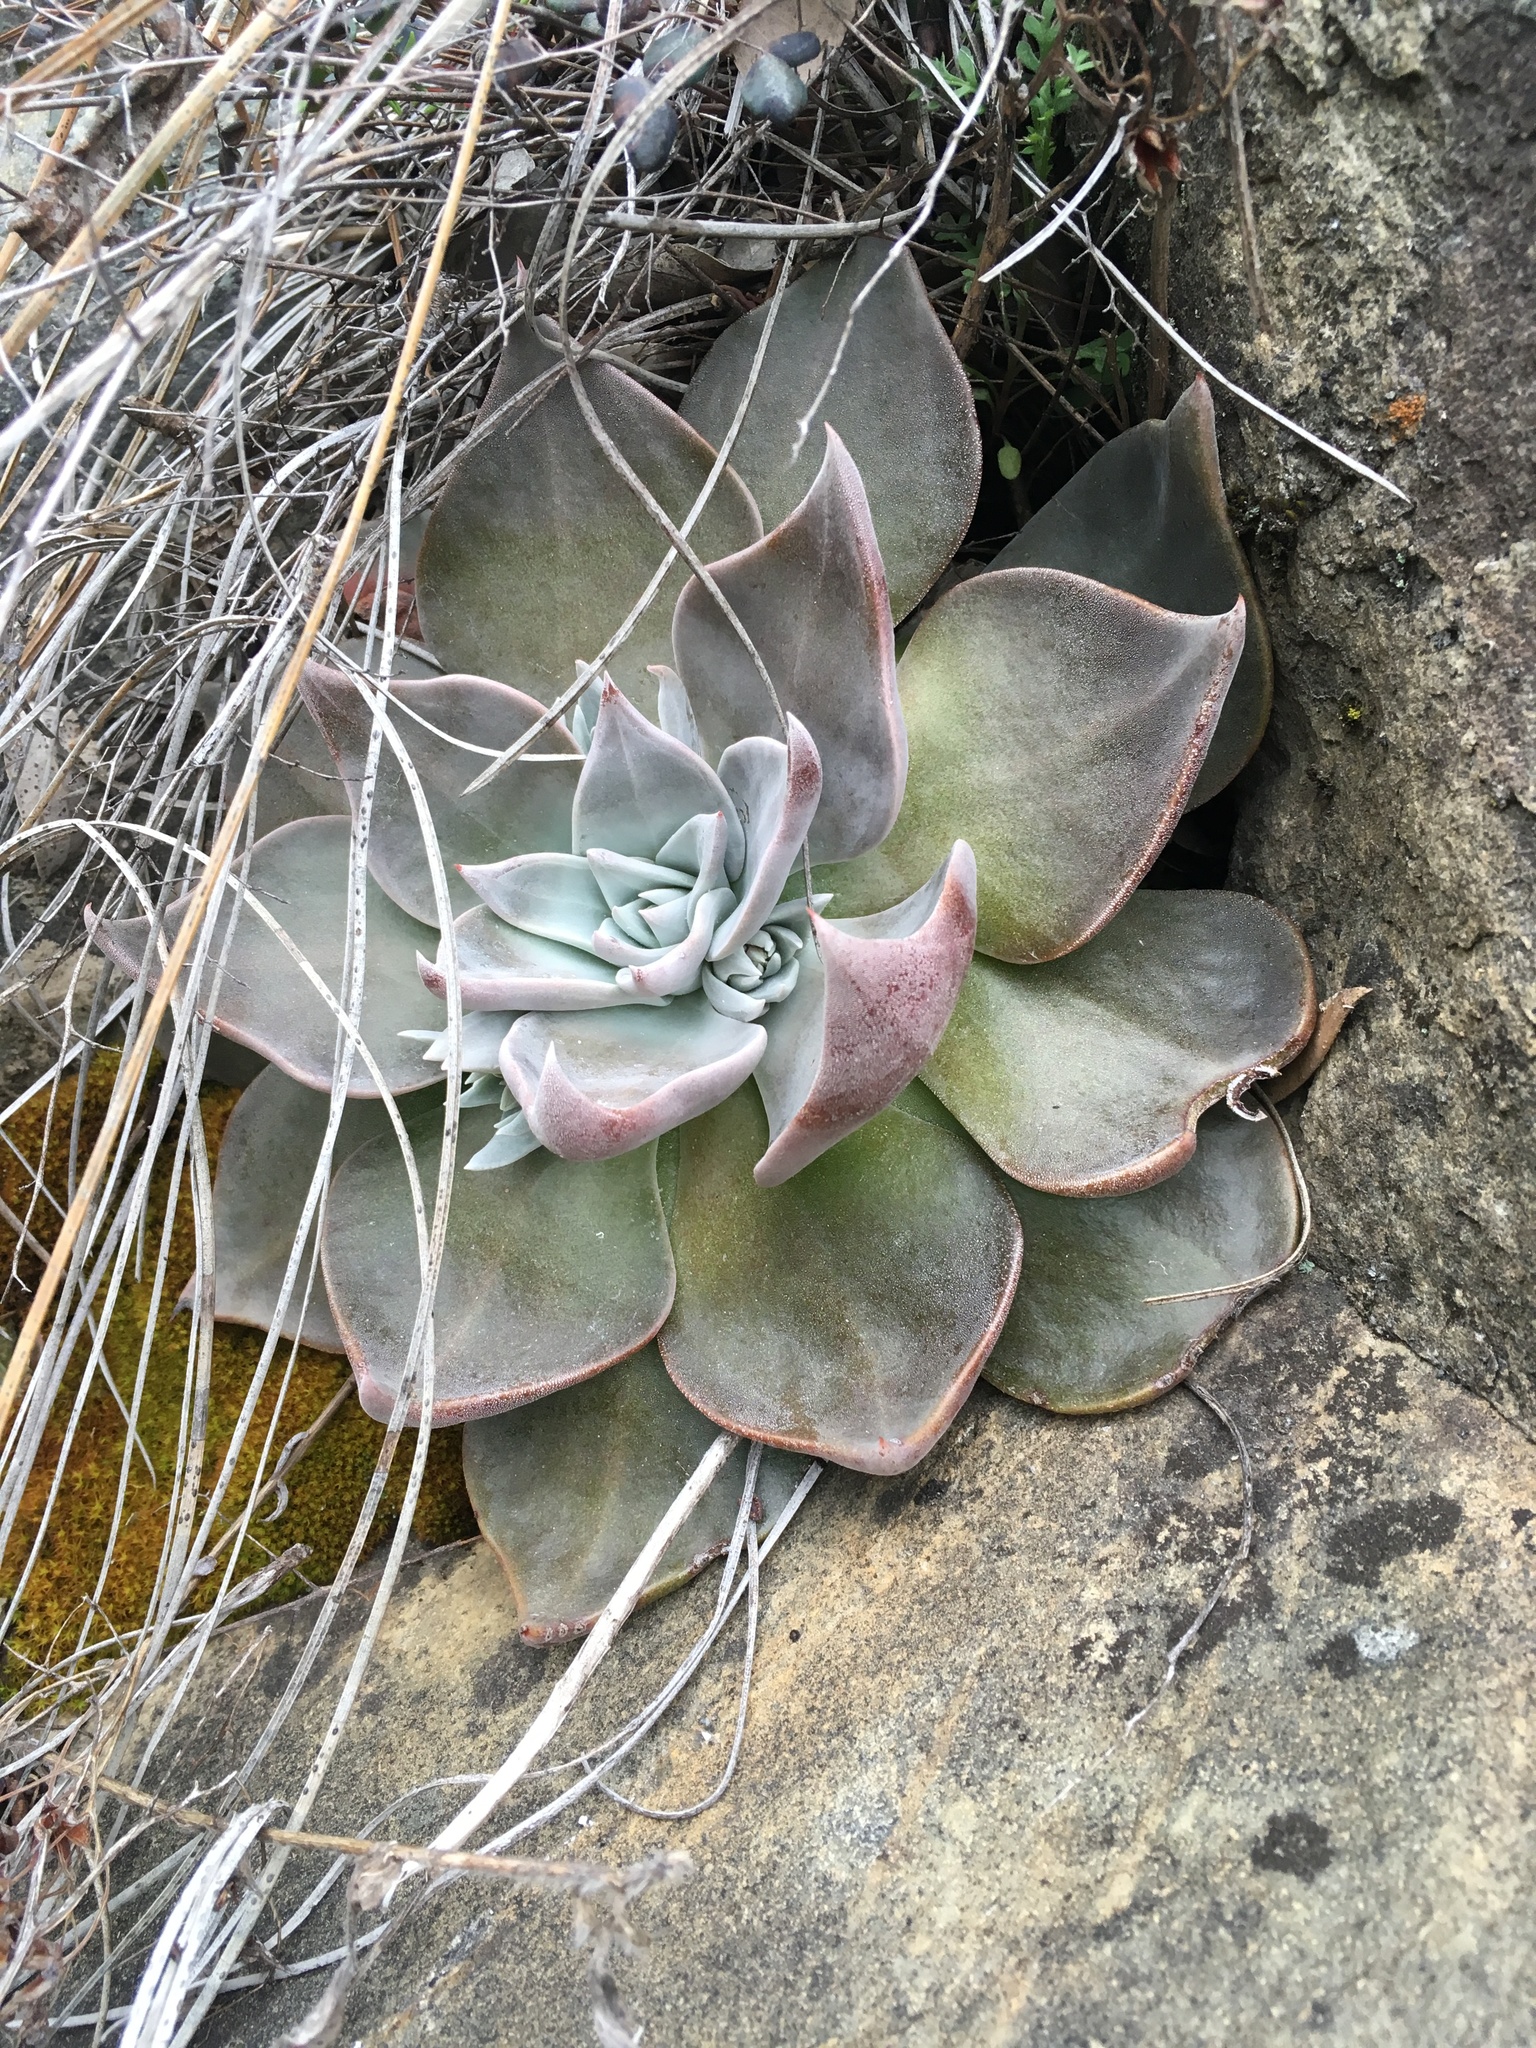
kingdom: Plantae
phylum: Tracheophyta
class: Magnoliopsida
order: Saxifragales
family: Crassulaceae
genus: Dudleya
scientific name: Dudleya cymosa
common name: Canyon dudleya
